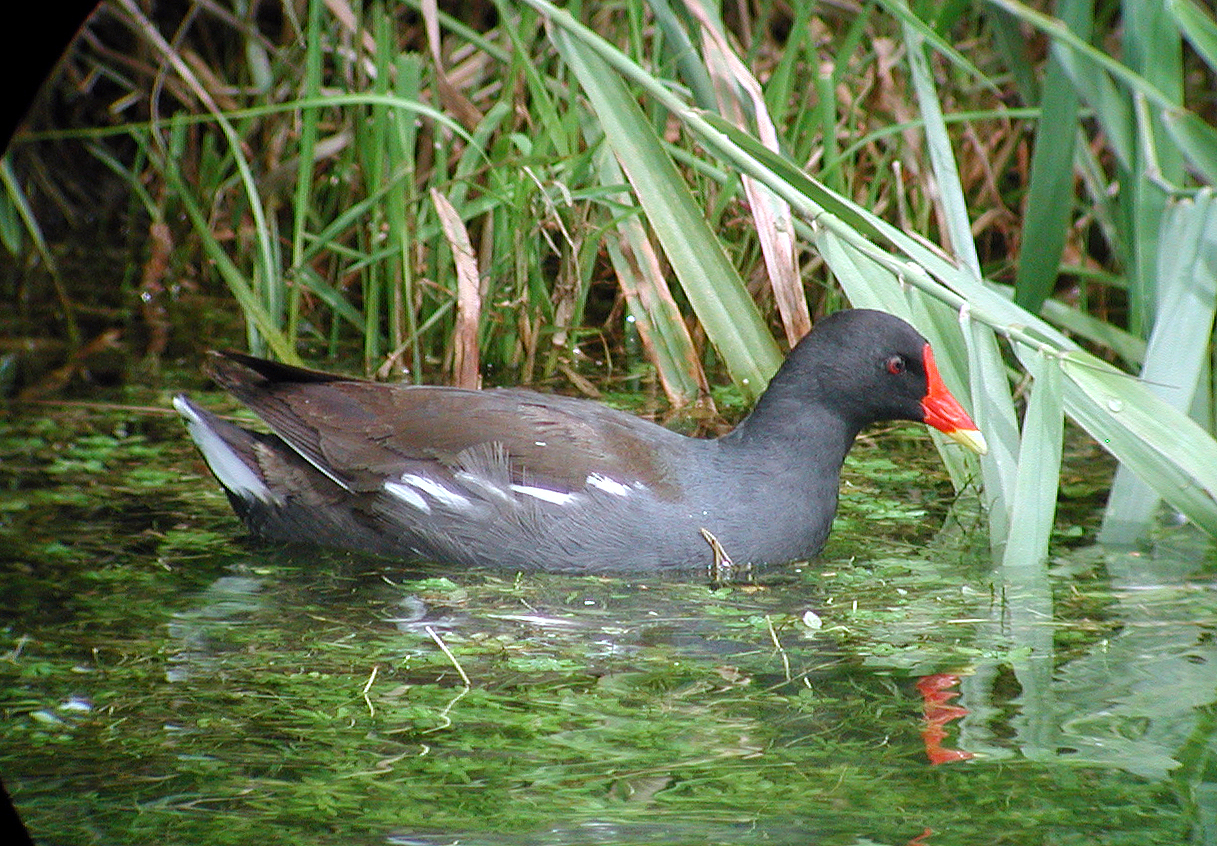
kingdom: Animalia
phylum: Chordata
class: Aves
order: Gruiformes
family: Rallidae
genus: Gallinula
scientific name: Gallinula chloropus
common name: Common moorhen
